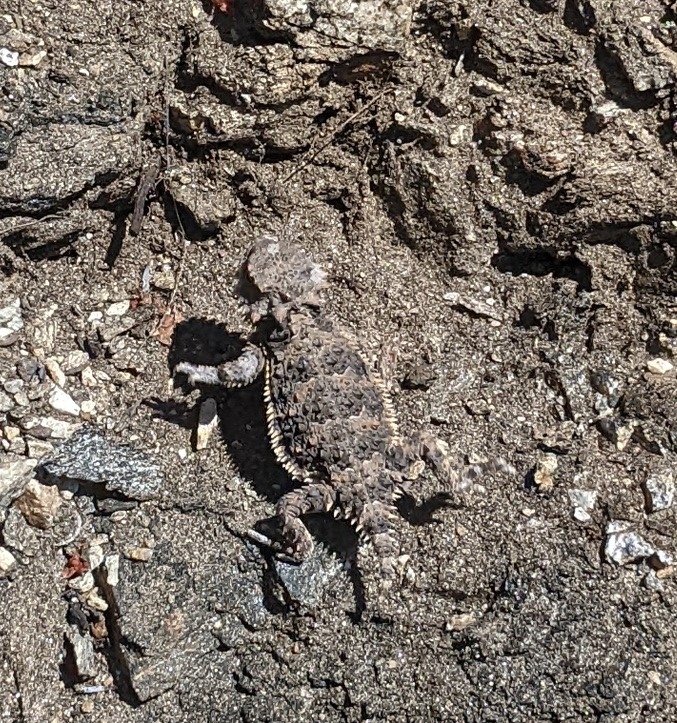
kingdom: Animalia
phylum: Chordata
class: Squamata
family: Phrynosomatidae
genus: Phrynosoma
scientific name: Phrynosoma blainvillii
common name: San diego horned lizard
